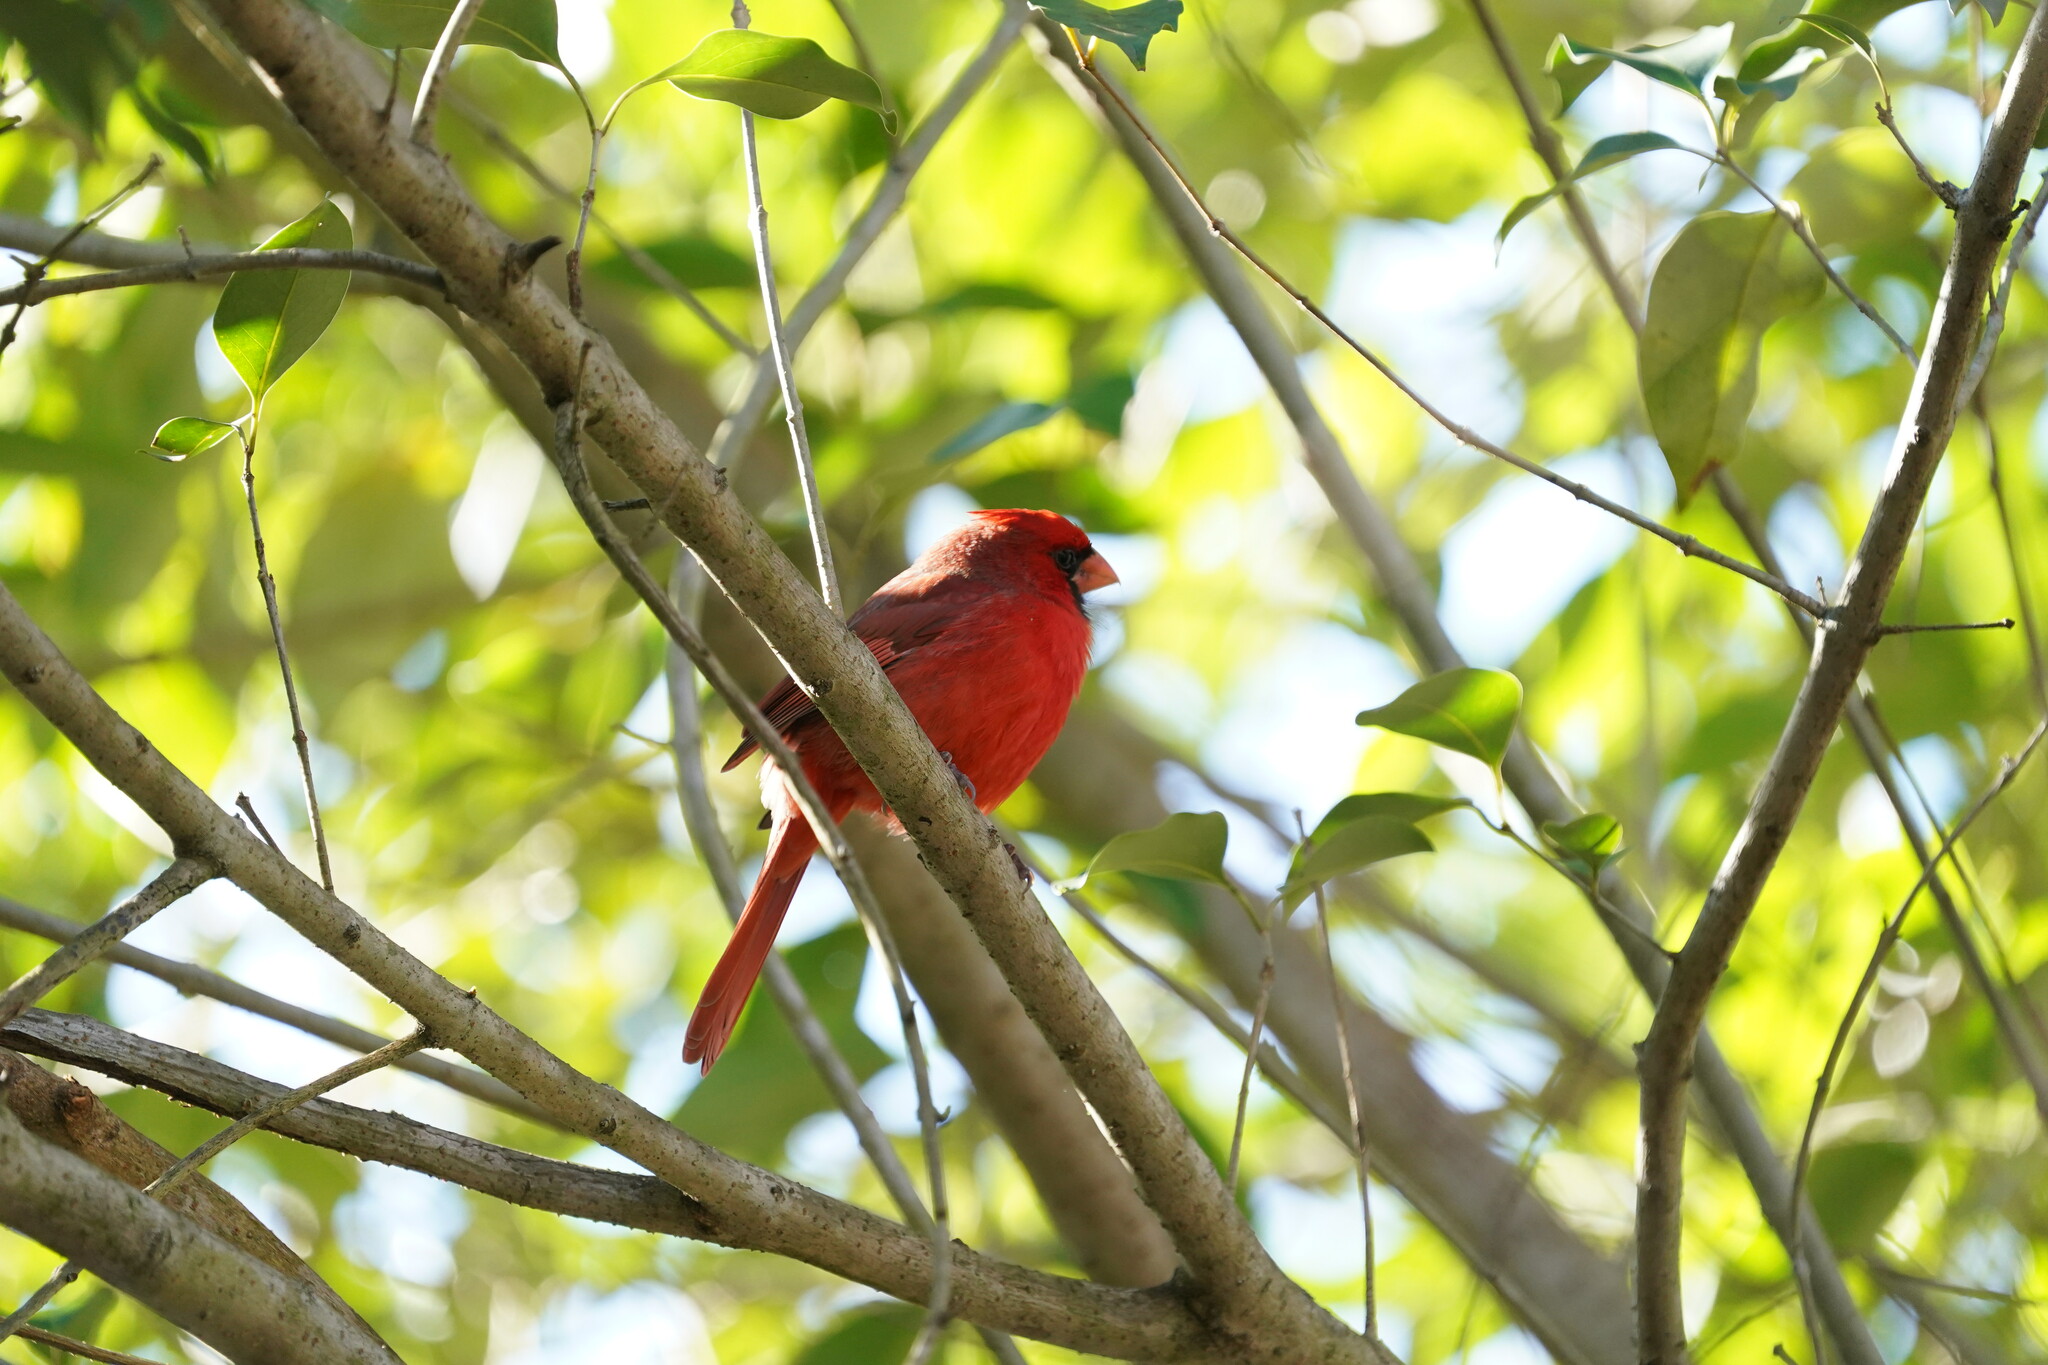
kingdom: Animalia
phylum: Chordata
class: Aves
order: Passeriformes
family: Cardinalidae
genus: Cardinalis
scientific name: Cardinalis cardinalis
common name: Northern cardinal
